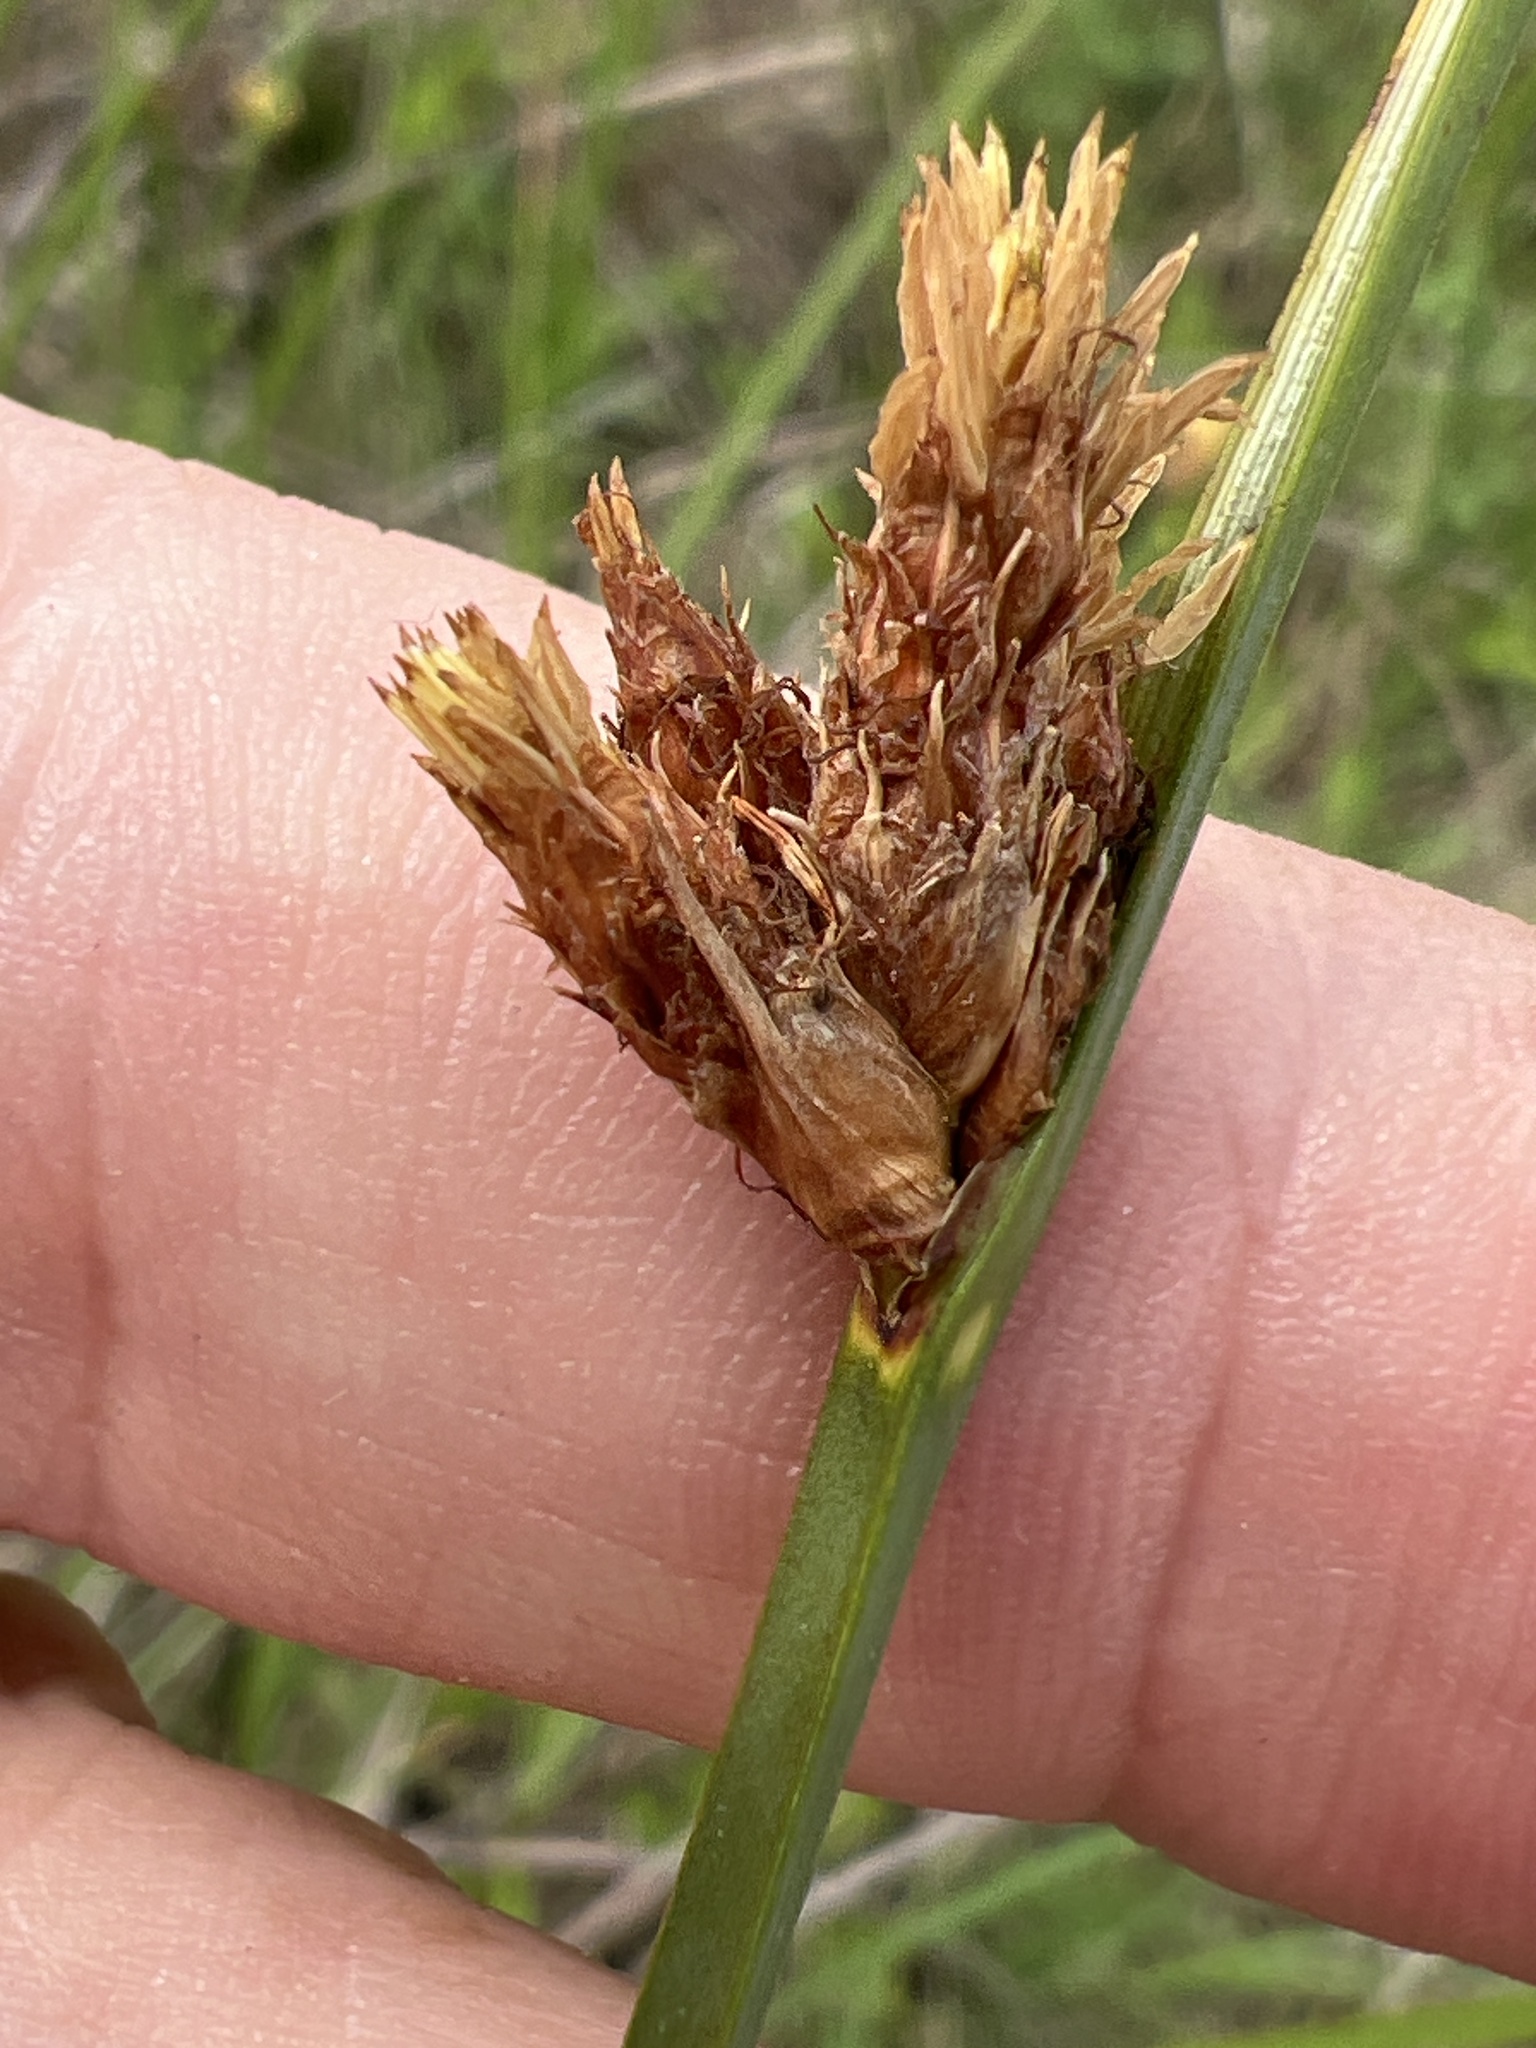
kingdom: Plantae
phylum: Tracheophyta
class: Liliopsida
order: Poales
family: Cyperaceae
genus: Schoenoplectus
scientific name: Schoenoplectus pungens
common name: Sharp club-rush
